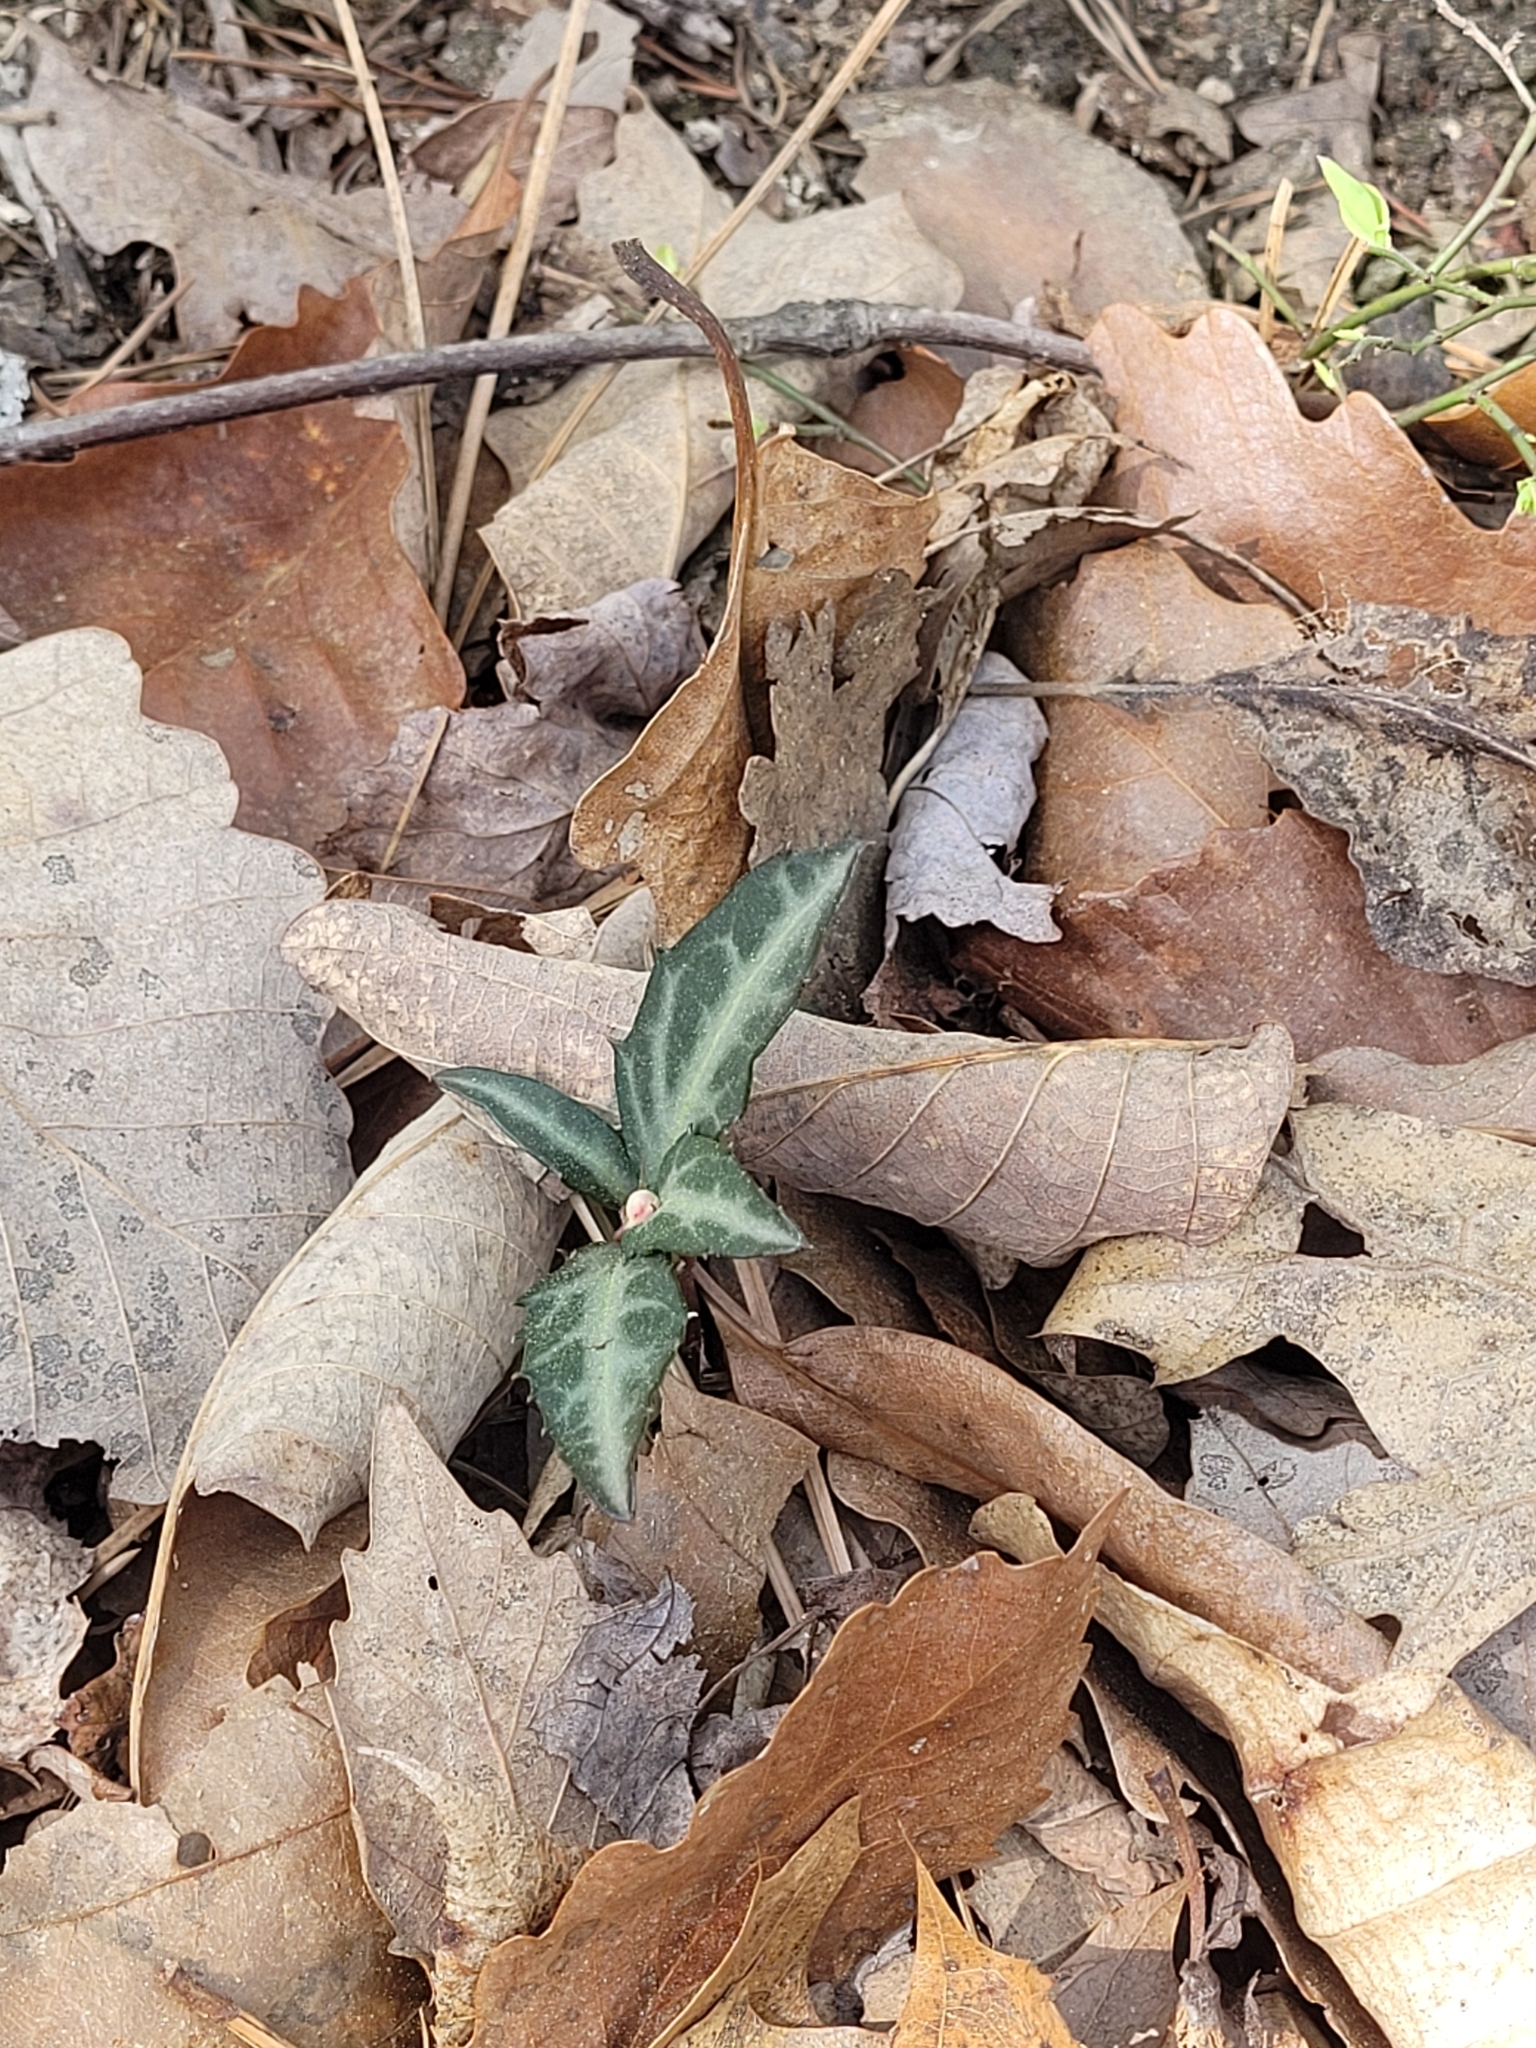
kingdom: Plantae
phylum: Tracheophyta
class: Magnoliopsida
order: Ericales
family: Ericaceae
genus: Chimaphila
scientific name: Chimaphila maculata
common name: Spotted pipsissewa
